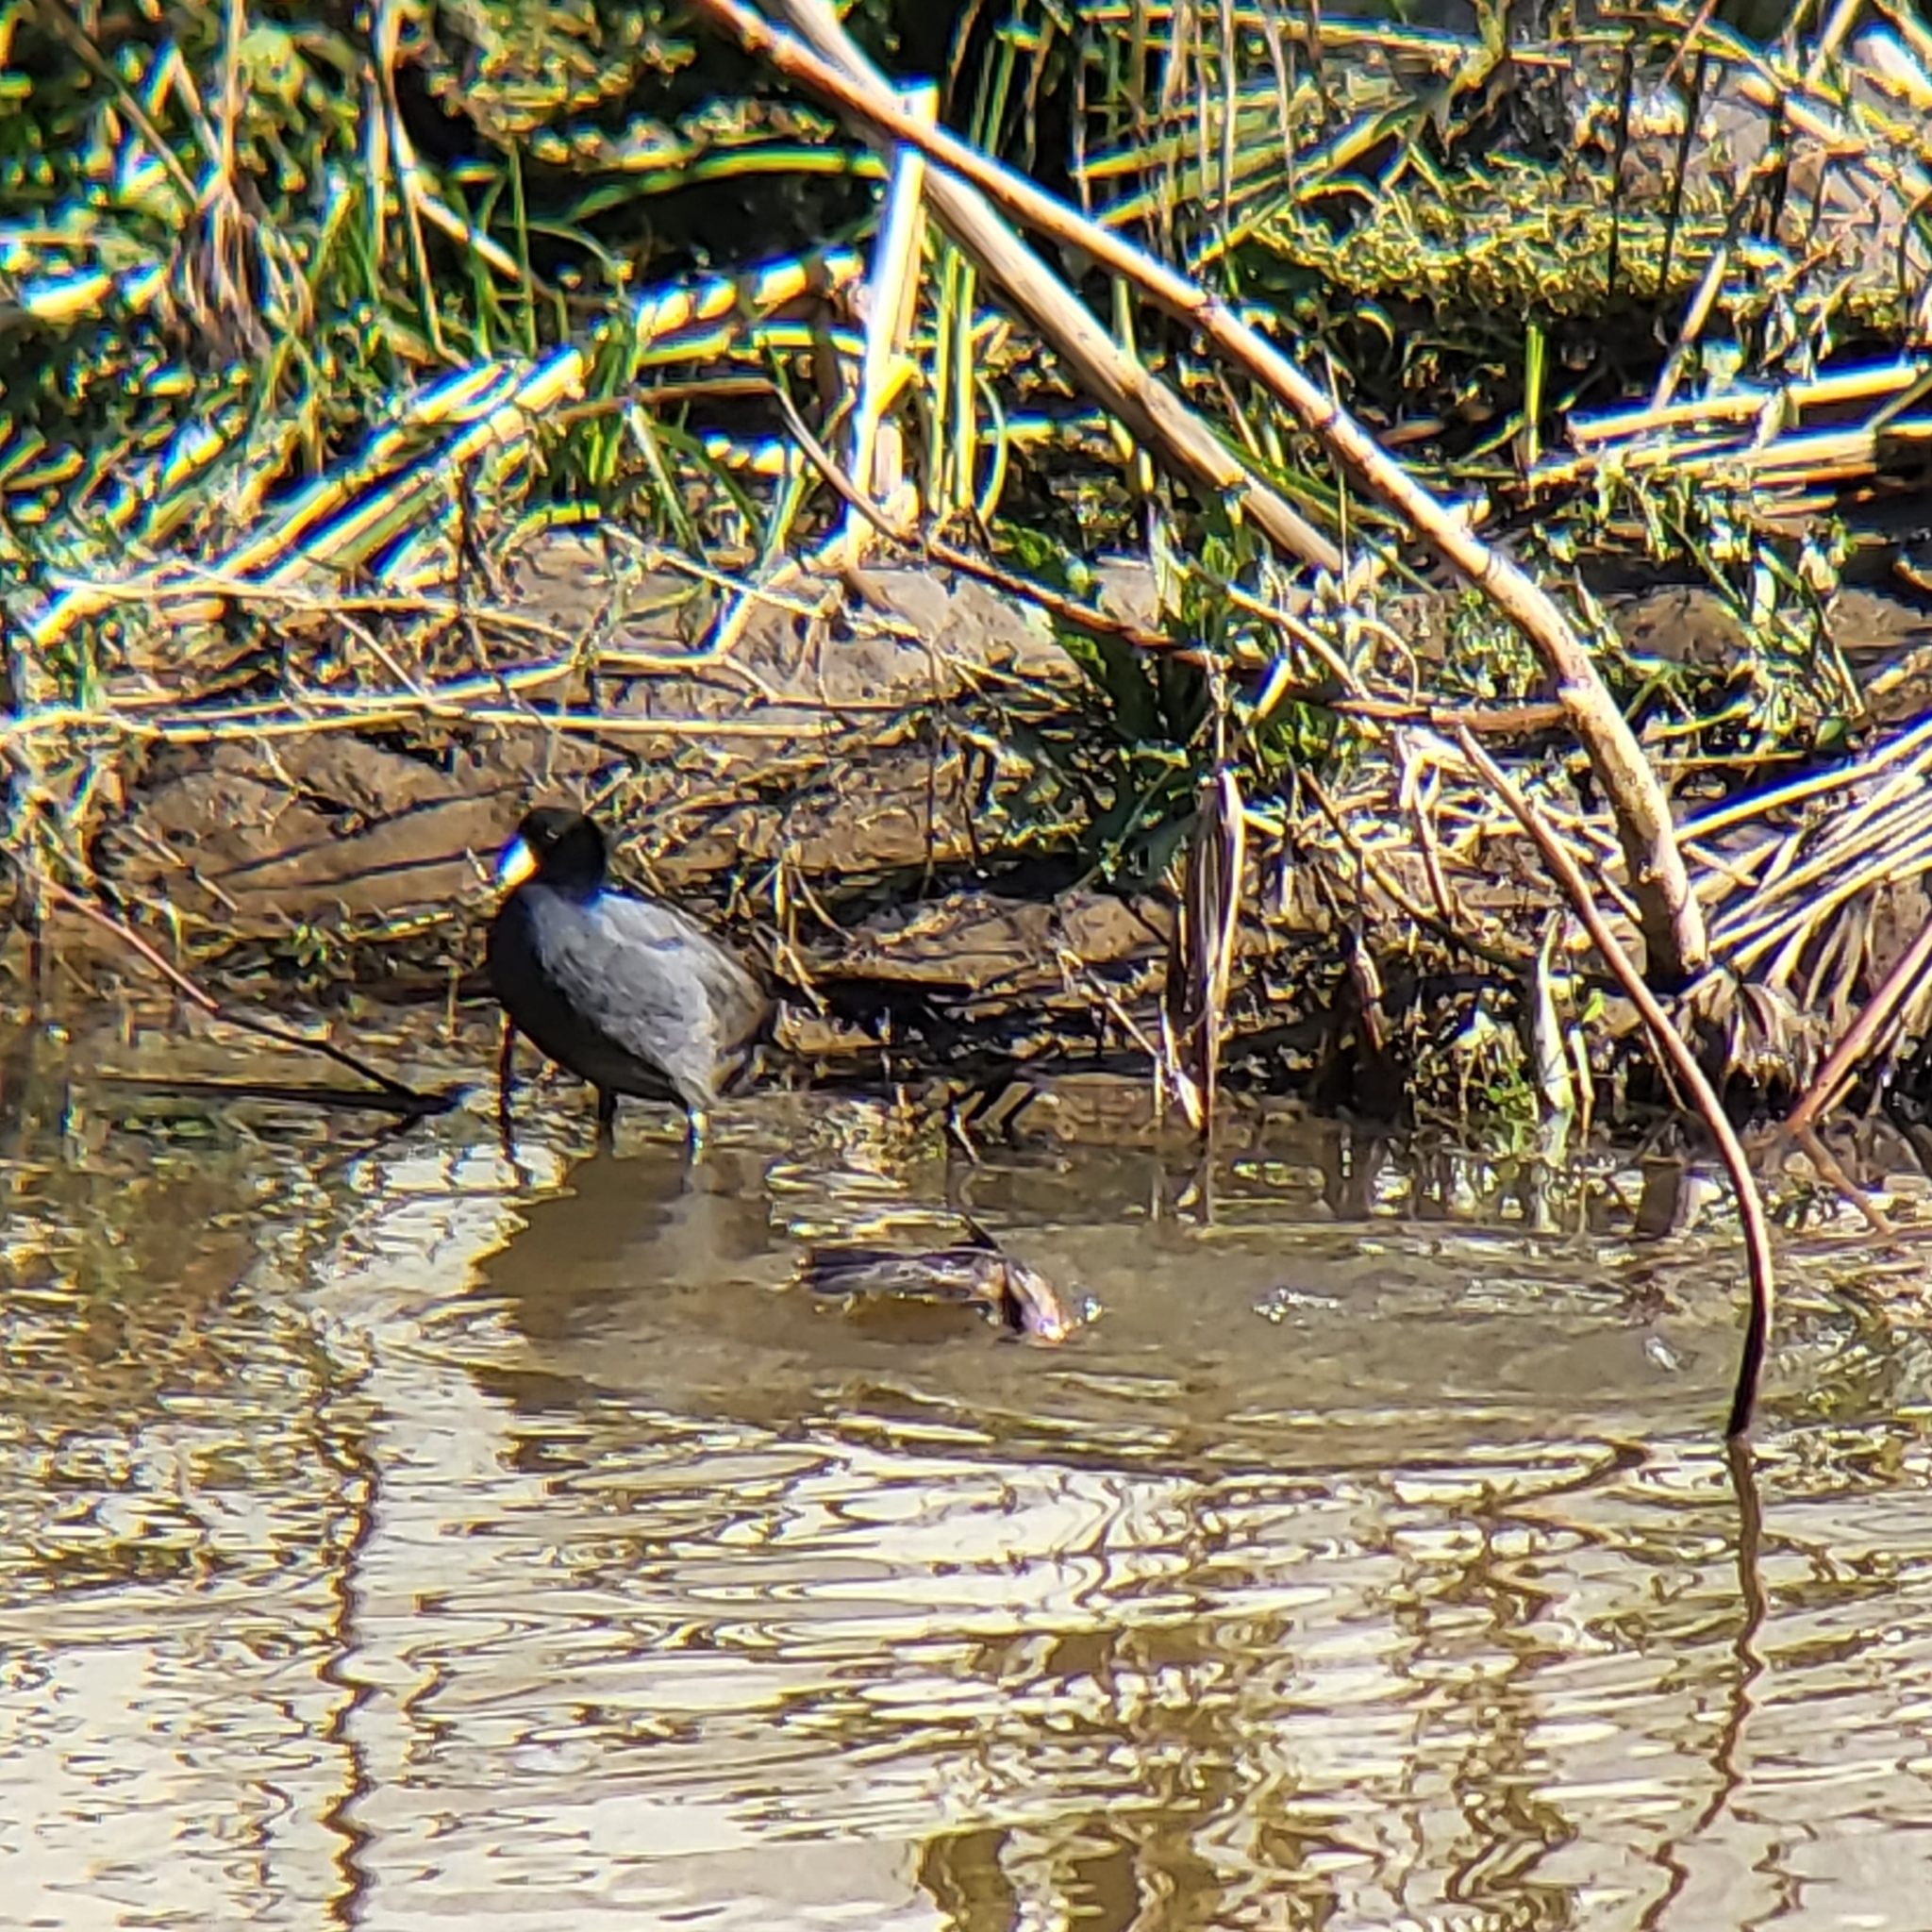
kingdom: Animalia
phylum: Chordata
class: Aves
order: Gruiformes
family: Rallidae
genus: Fulica
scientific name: Fulica americana
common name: American coot
